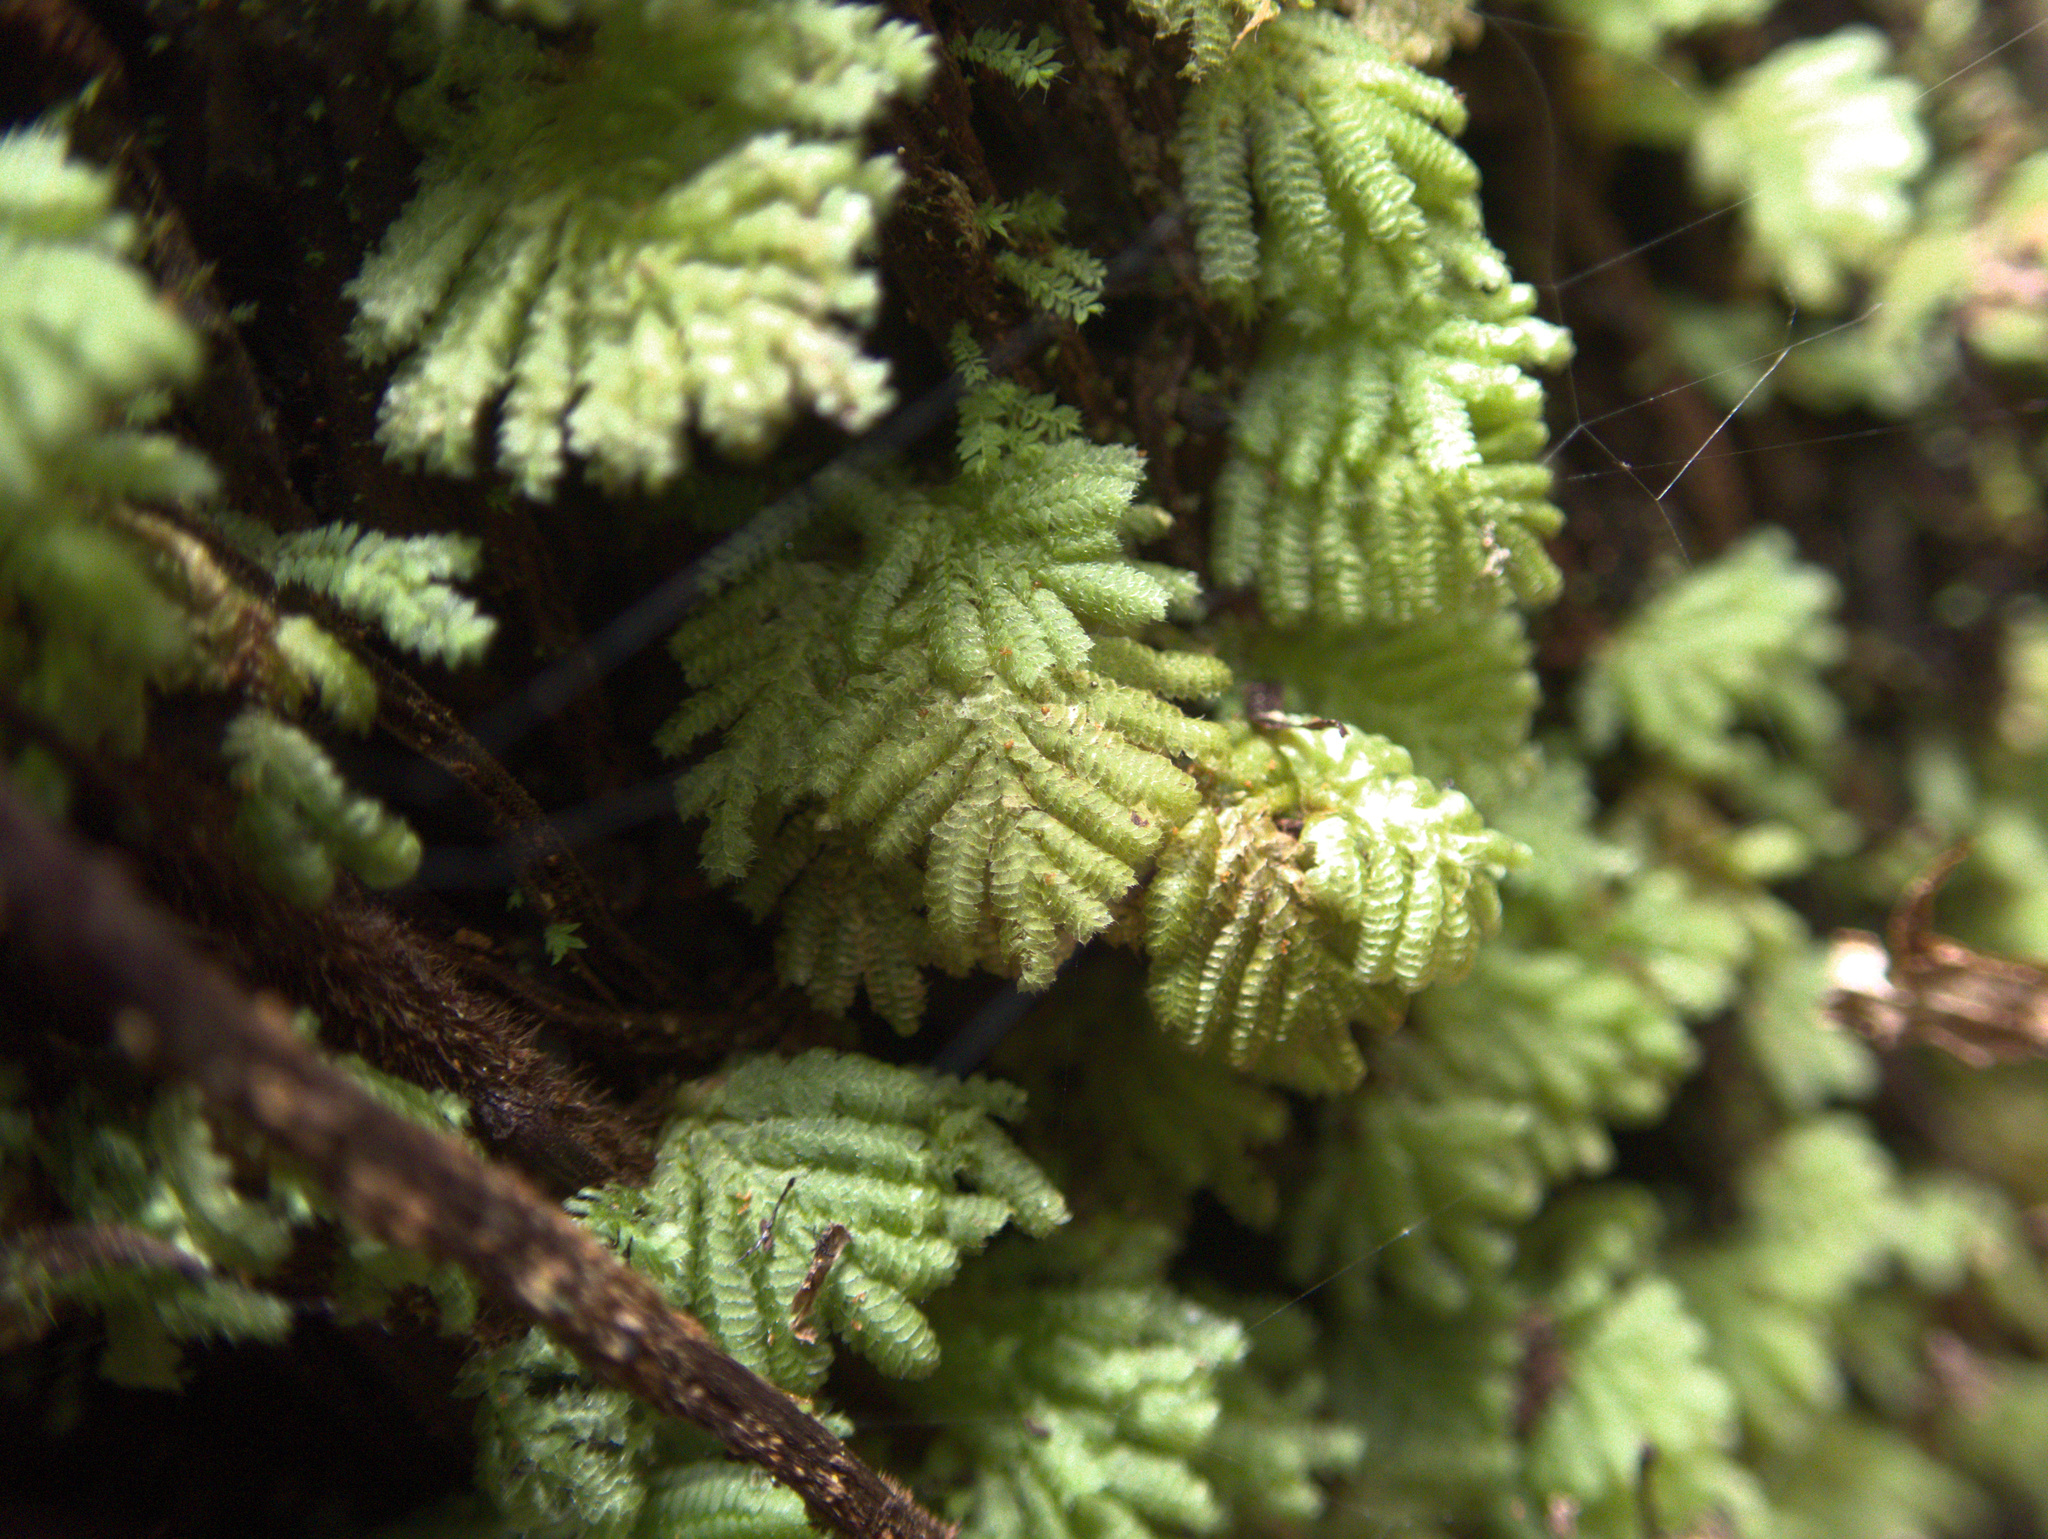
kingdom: Plantae
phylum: Bryophyta
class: Bryopsida
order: Hypopterygiales
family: Hypopterygiaceae
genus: Catharomnion
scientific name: Catharomnion ciliatum
